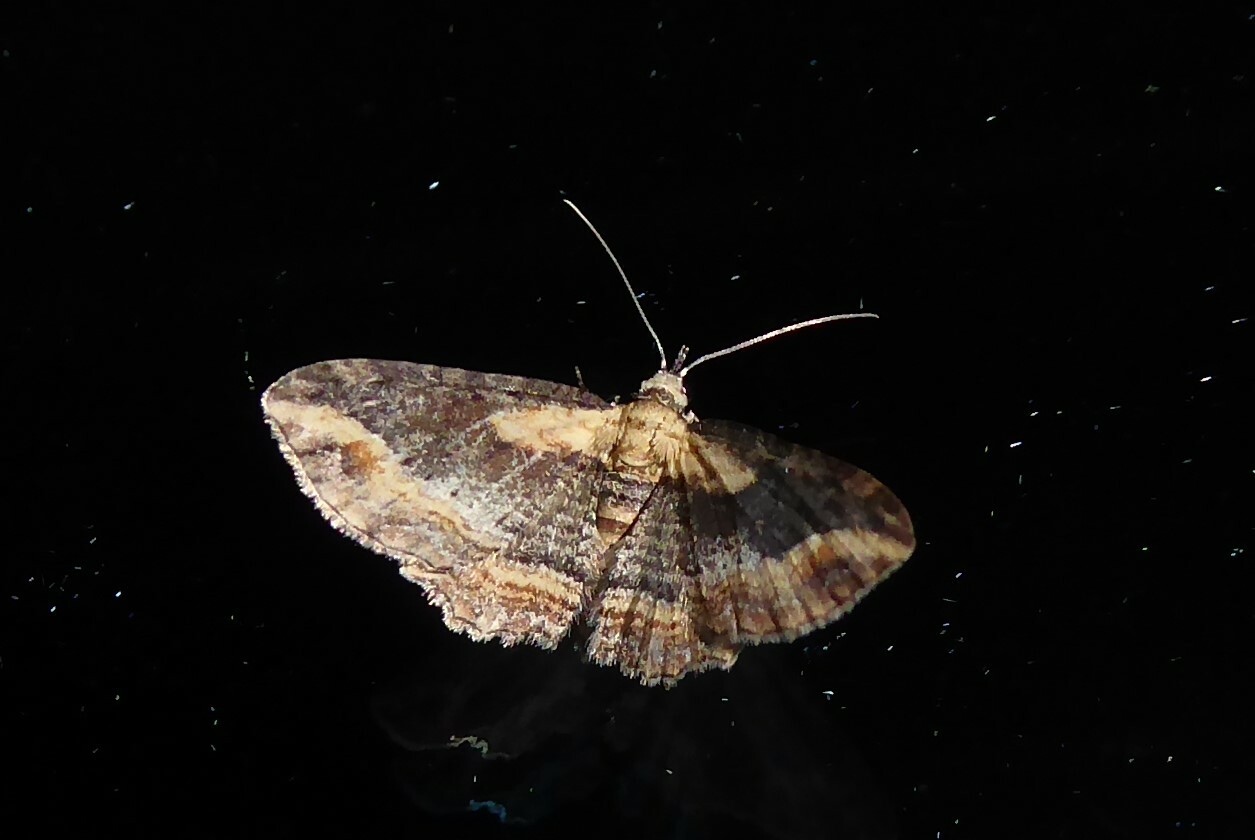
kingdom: Animalia
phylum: Arthropoda
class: Insecta
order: Lepidoptera
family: Geometridae
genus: Chloroclystis
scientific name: Chloroclystis filata
